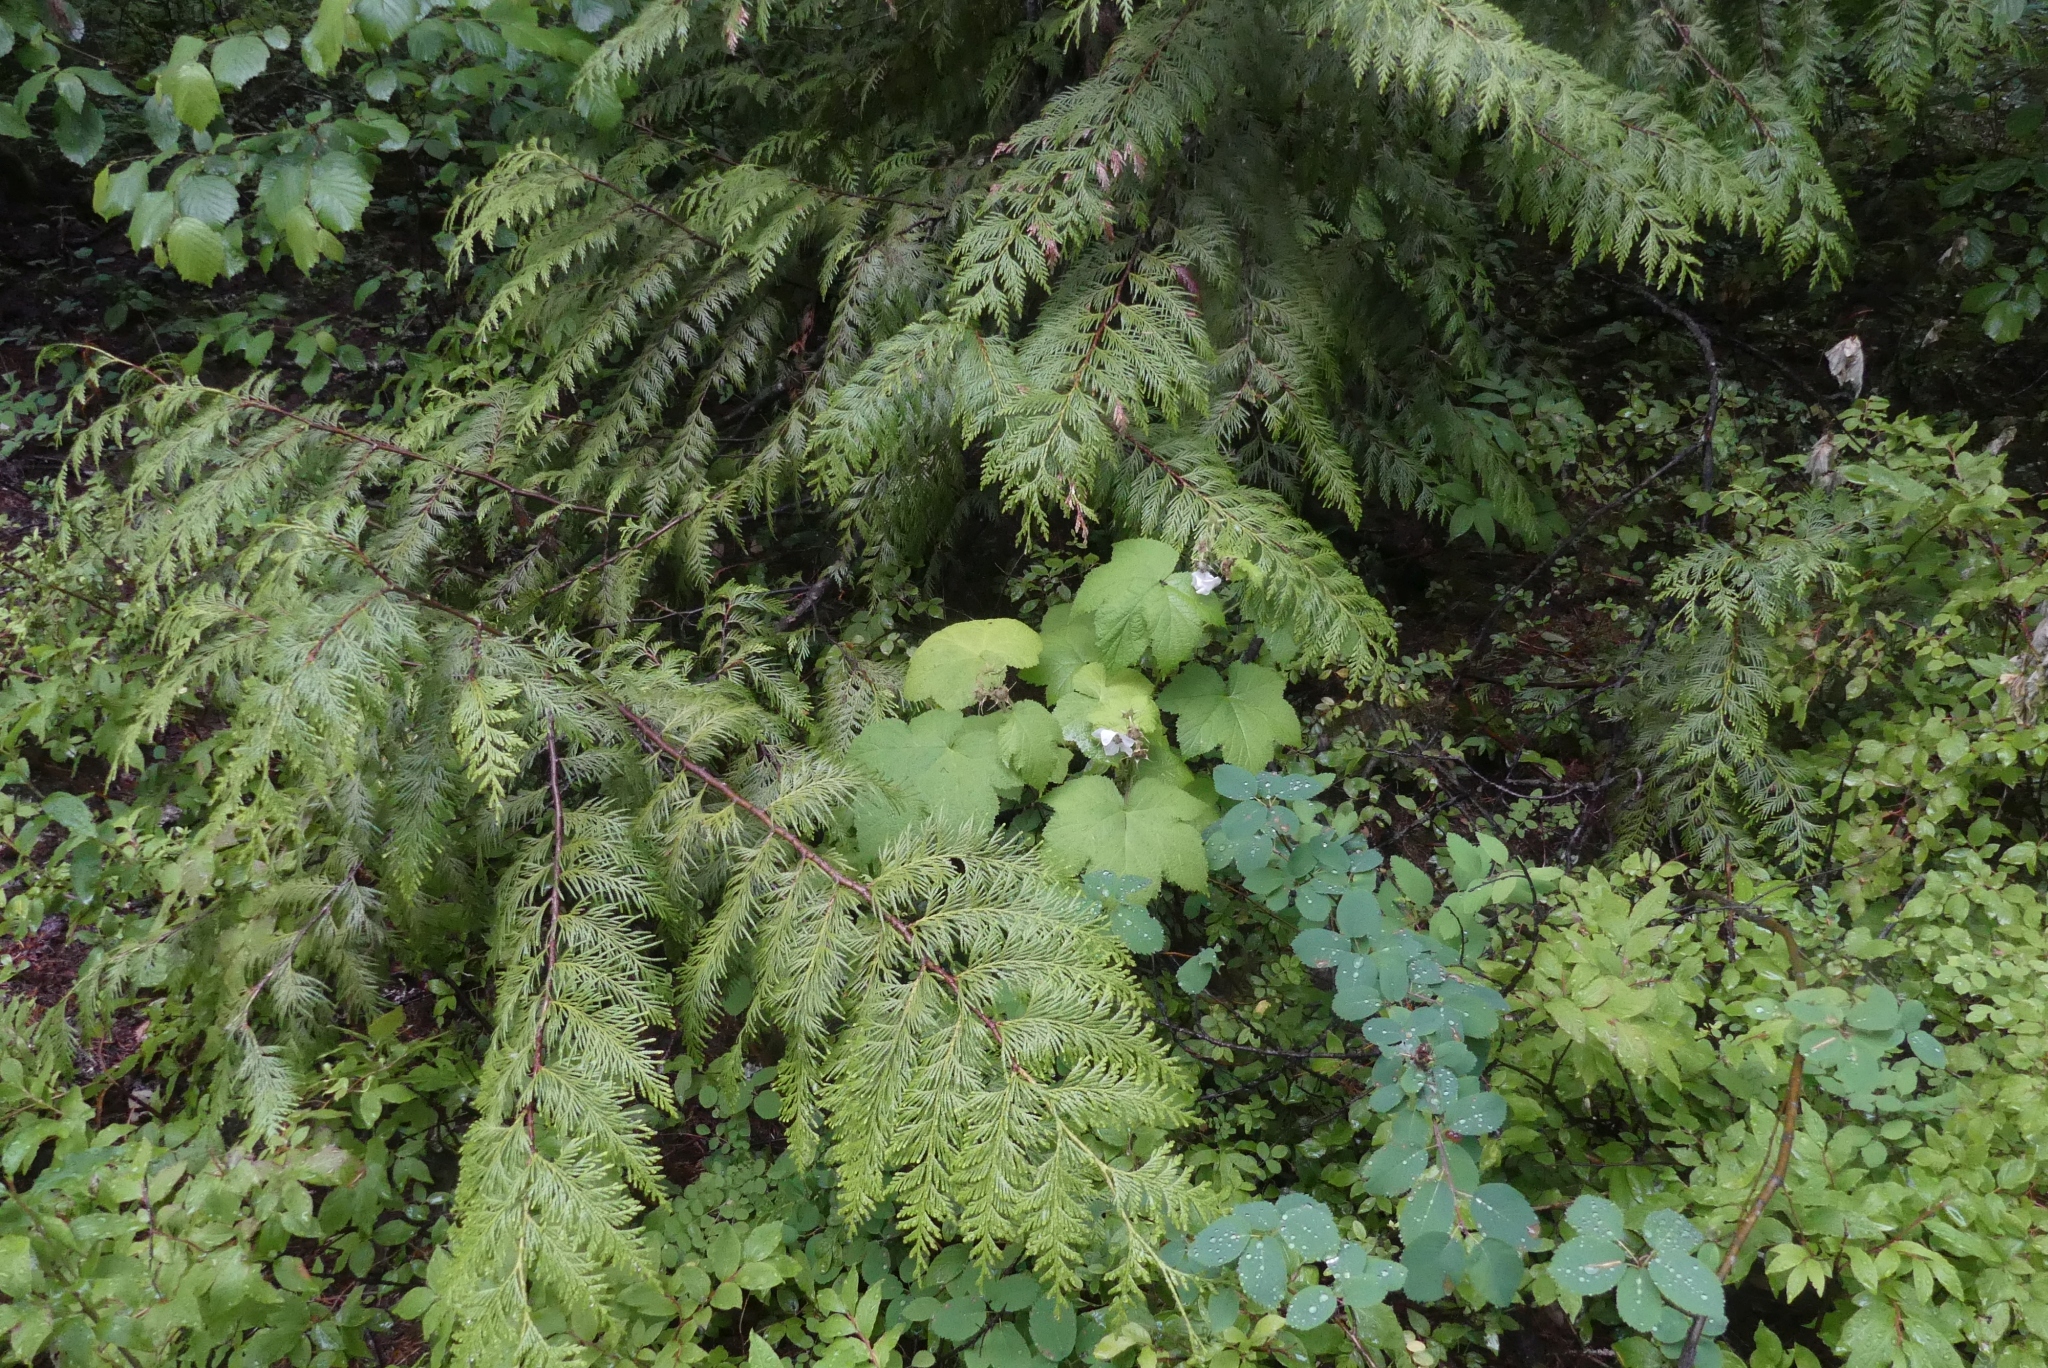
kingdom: Plantae
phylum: Tracheophyta
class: Magnoliopsida
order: Rosales
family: Rosaceae
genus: Rubus
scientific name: Rubus parviflorus
